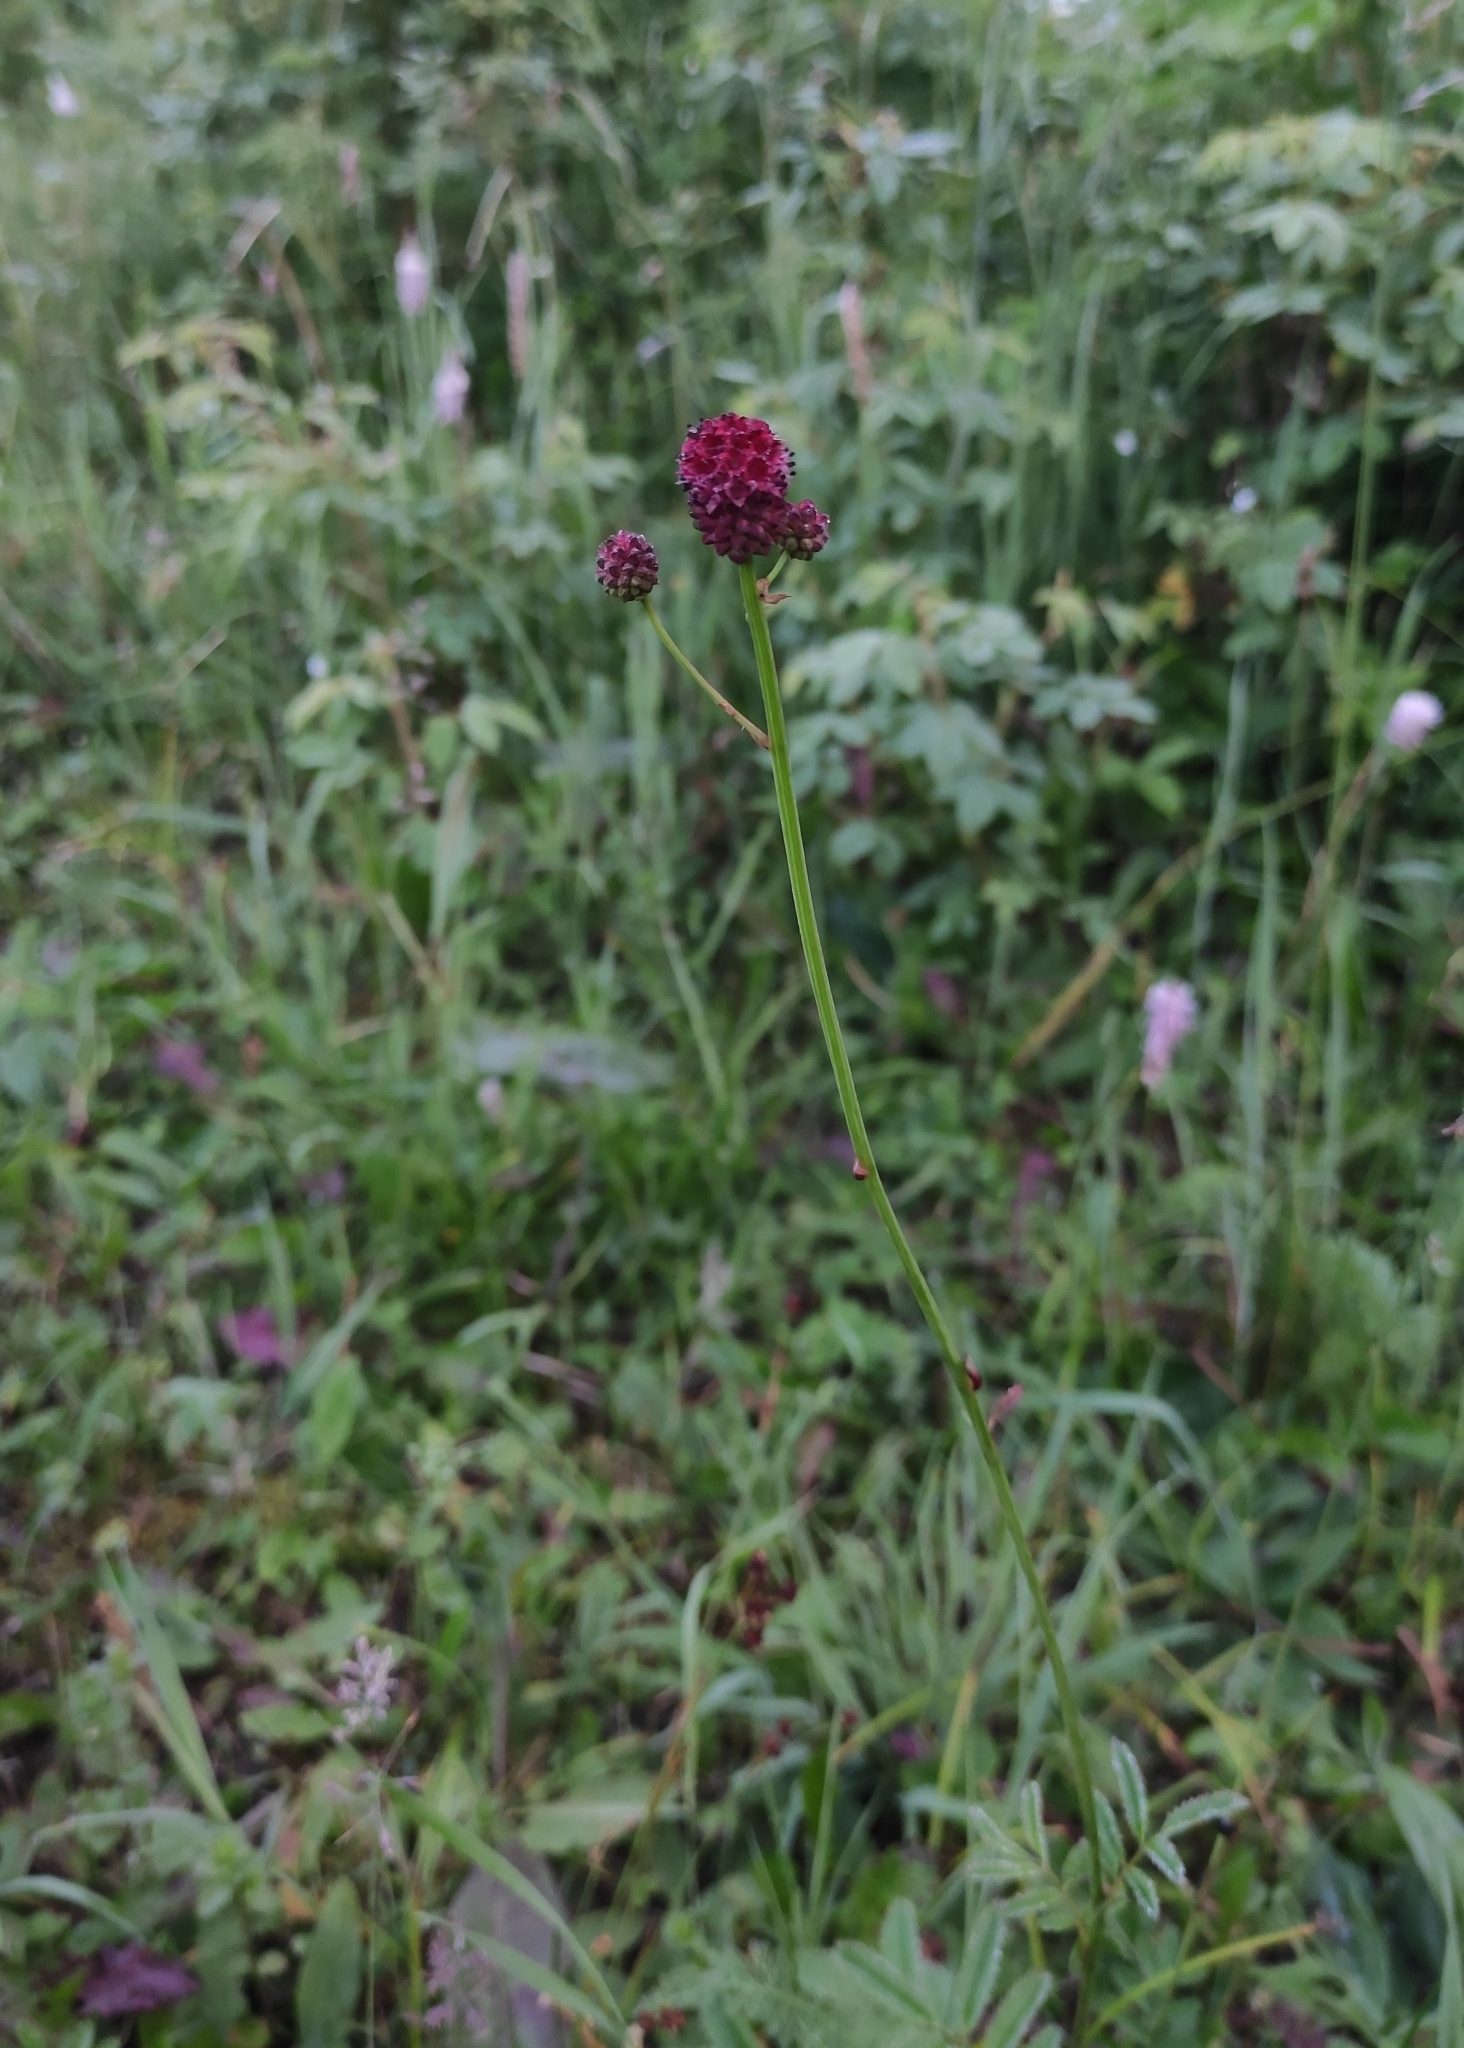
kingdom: Plantae
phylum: Tracheophyta
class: Magnoliopsida
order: Rosales
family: Rosaceae
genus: Sanguisorba
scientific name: Sanguisorba officinalis
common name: Great burnet
